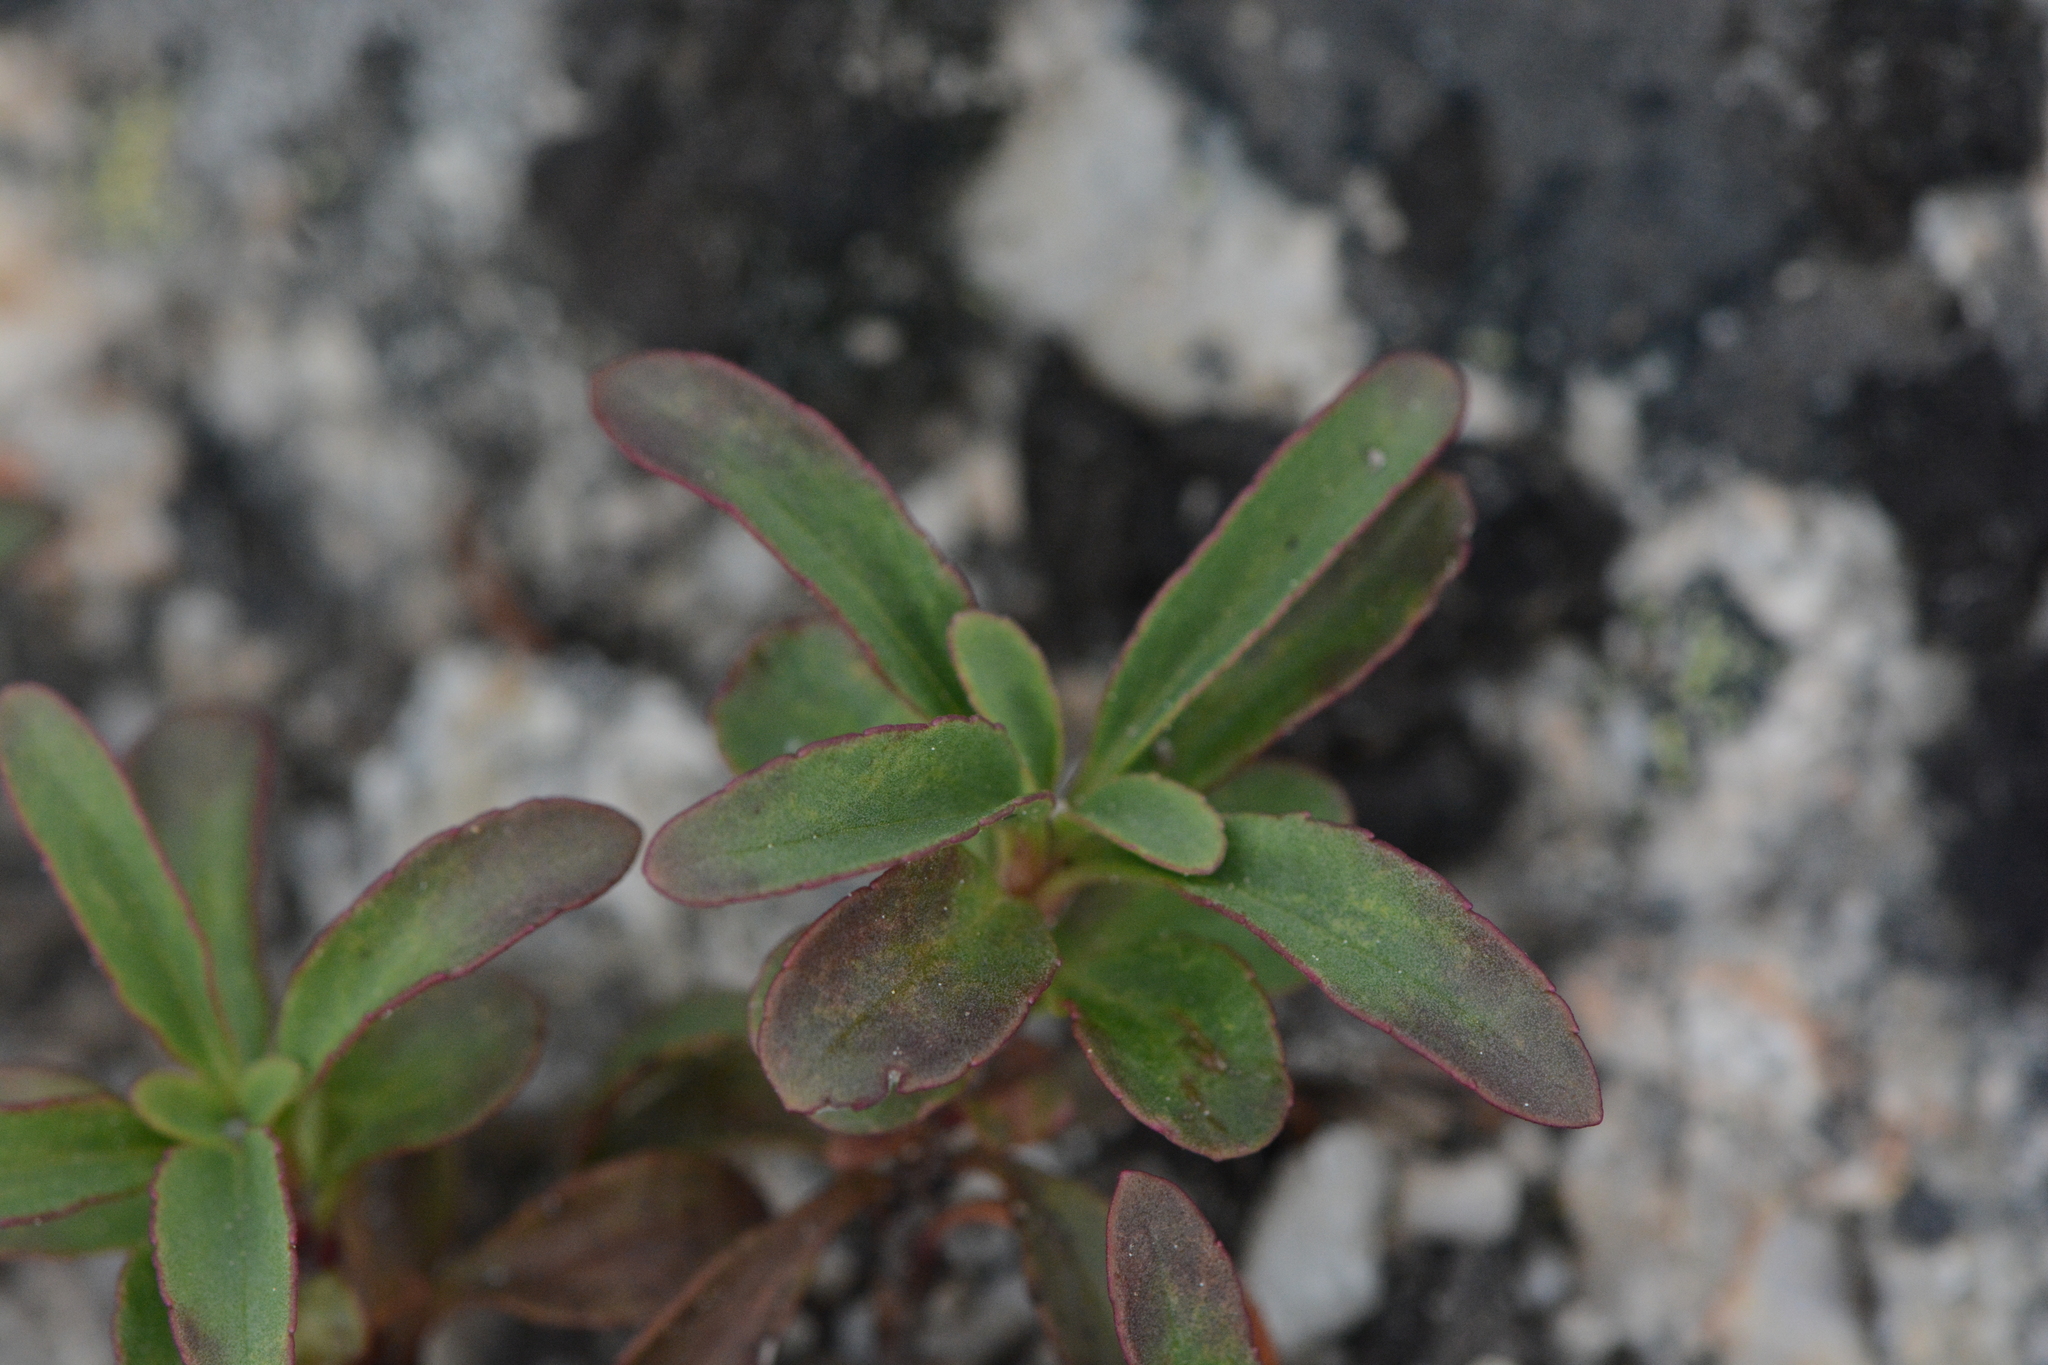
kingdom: Plantae
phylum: Tracheophyta
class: Magnoliopsida
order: Lamiales
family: Plantaginaceae
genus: Penstemon
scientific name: Penstemon ellipticus
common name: Alpine beardtongue
